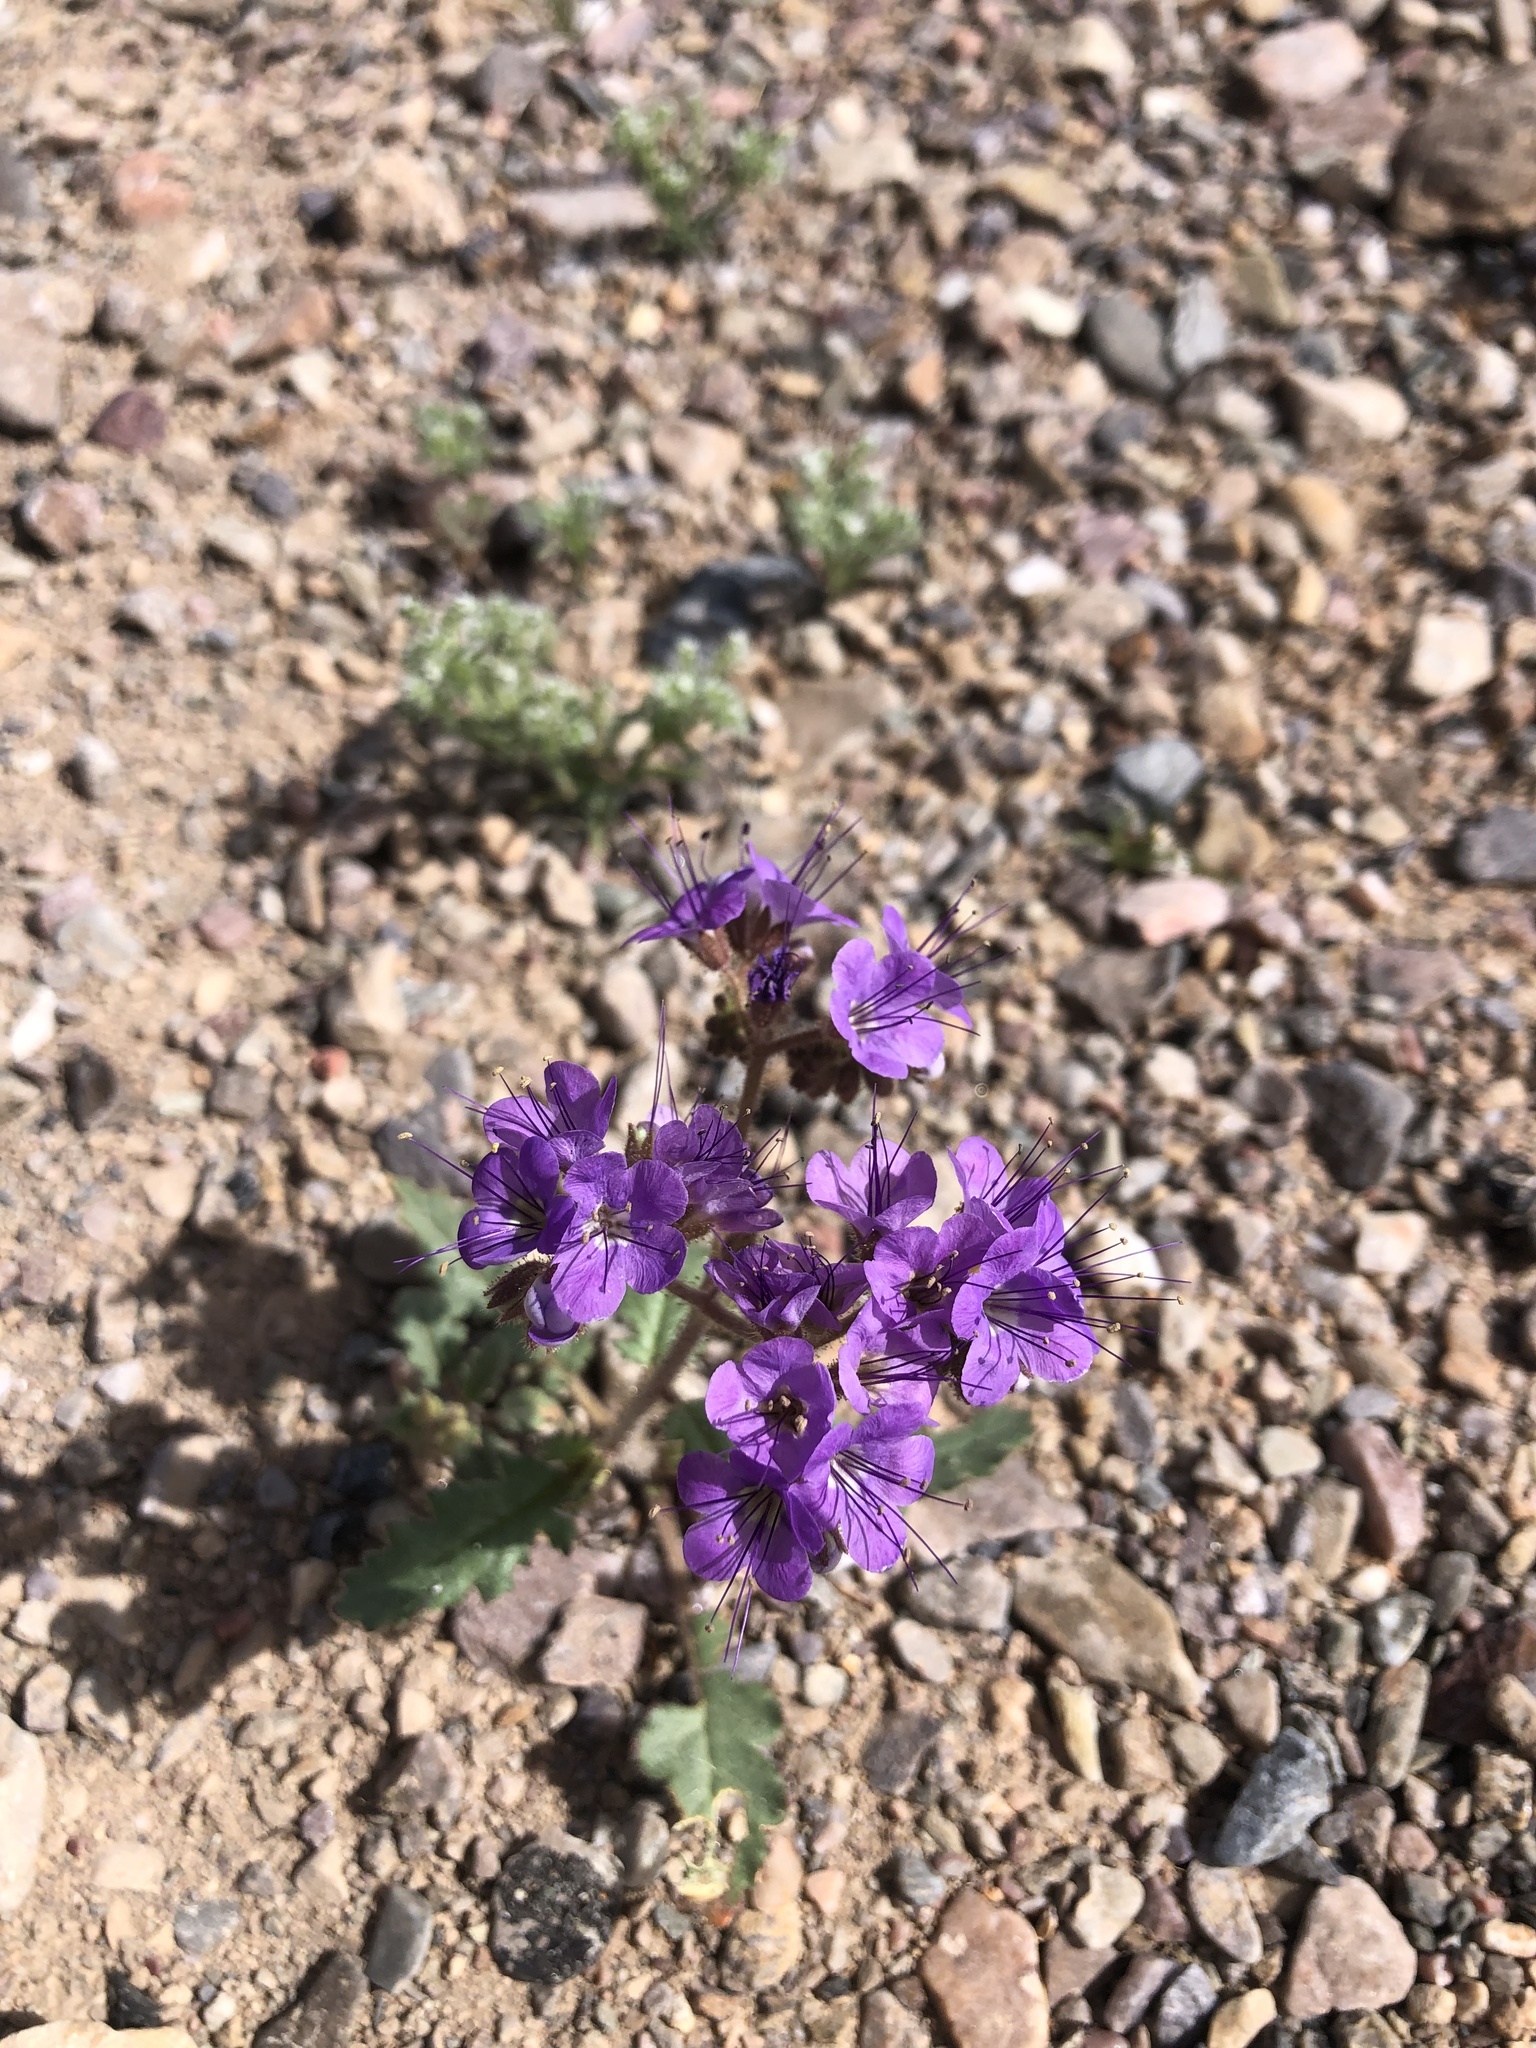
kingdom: Plantae
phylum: Tracheophyta
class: Magnoliopsida
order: Boraginales
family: Hydrophyllaceae
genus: Phacelia
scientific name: Phacelia crenulata
